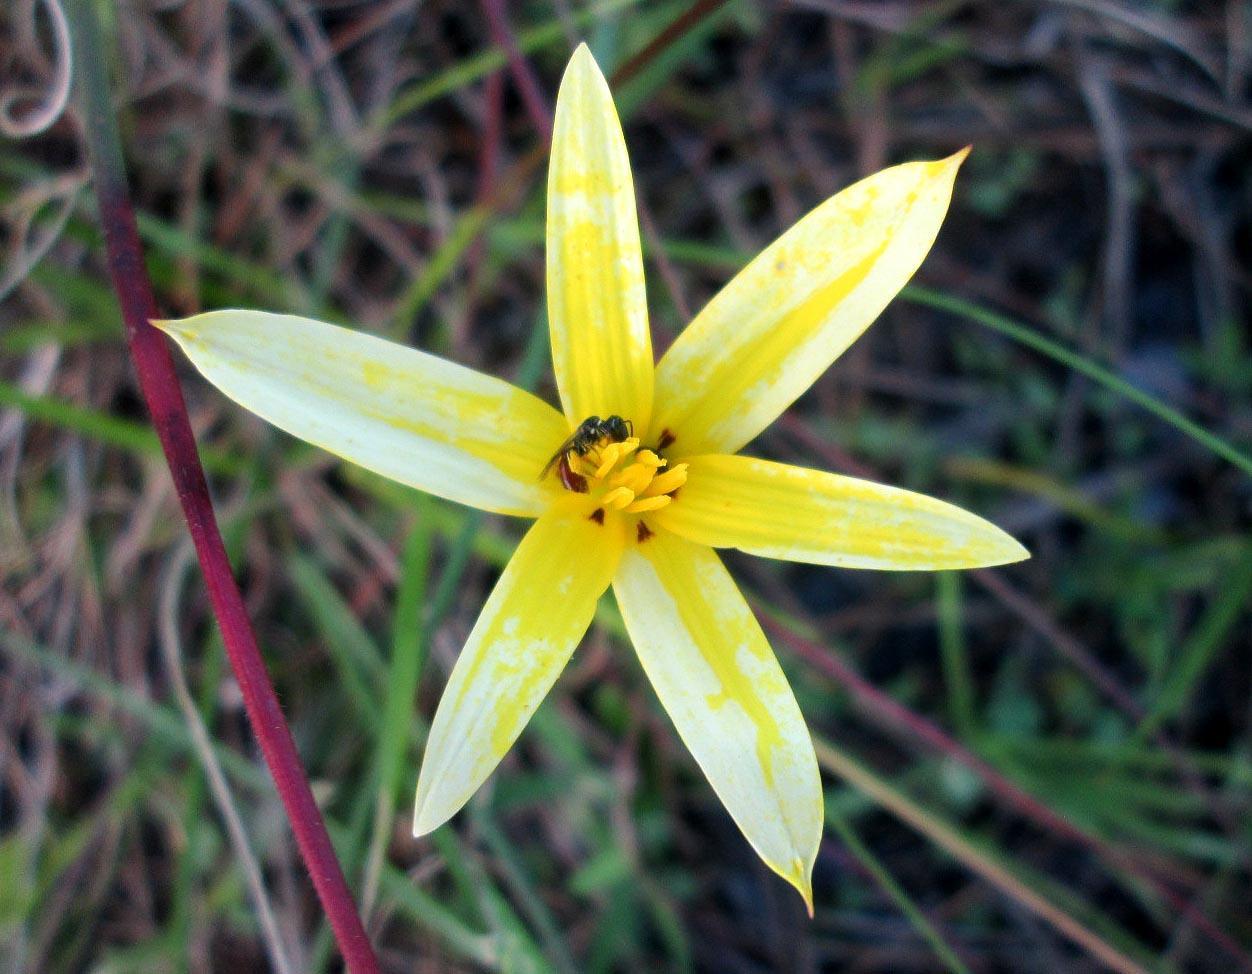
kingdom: Plantae
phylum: Tracheophyta
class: Liliopsida
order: Asparagales
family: Hypoxidaceae
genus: Pauridia
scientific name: Pauridia capensis
